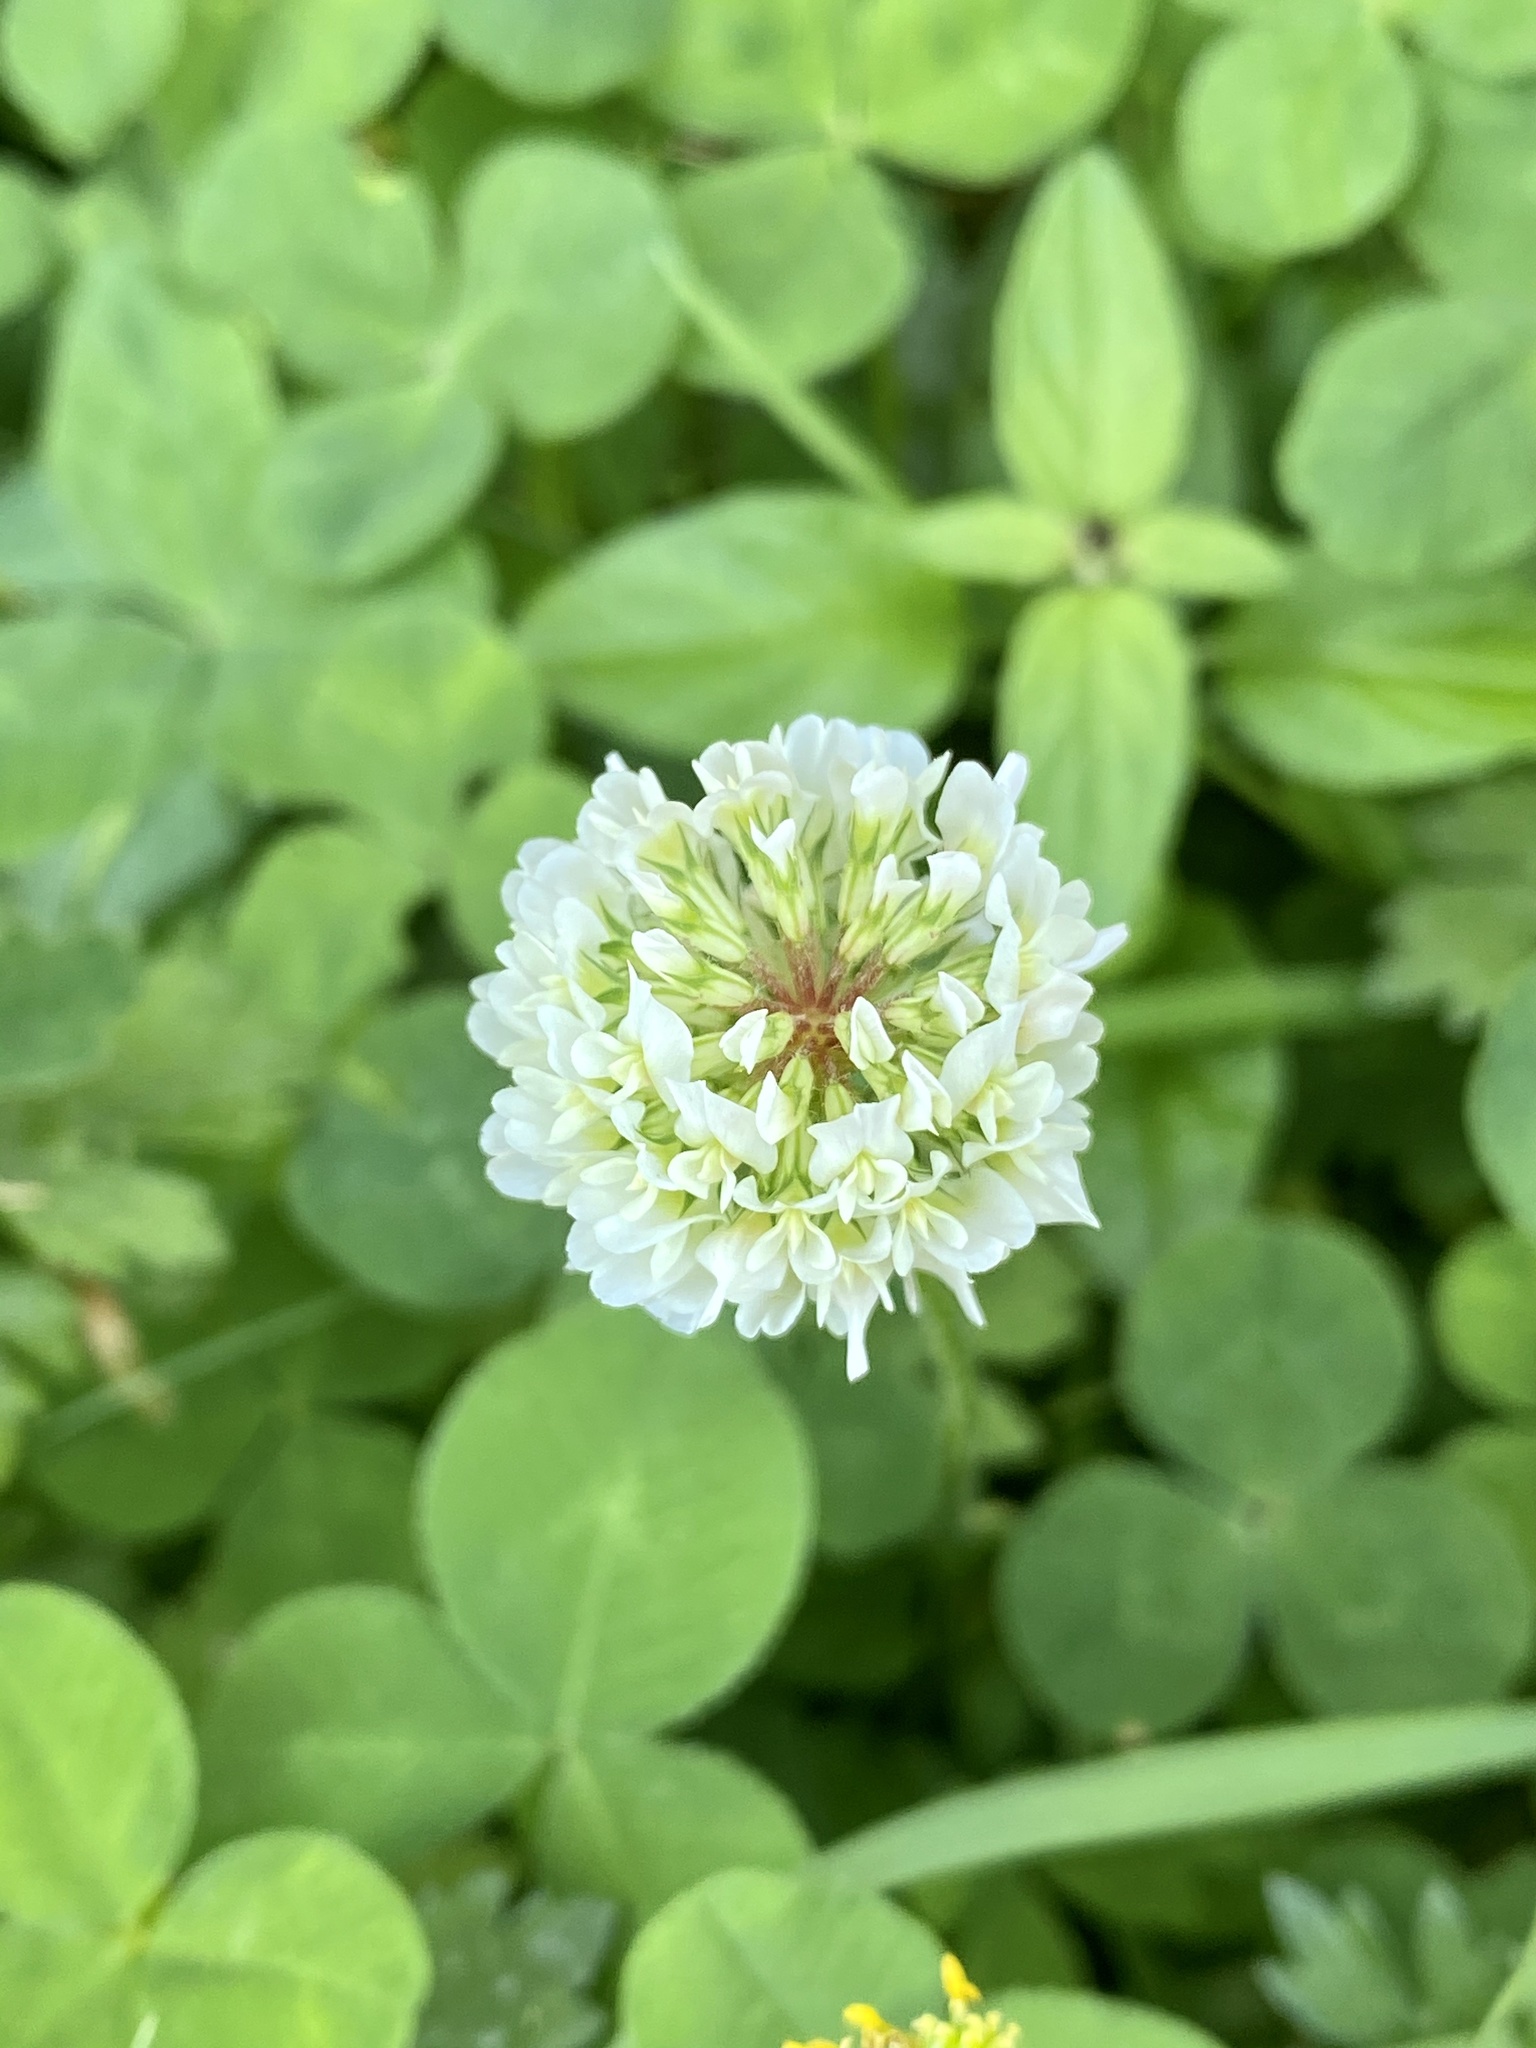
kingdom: Plantae
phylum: Tracheophyta
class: Magnoliopsida
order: Fabales
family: Fabaceae
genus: Trifolium
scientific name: Trifolium repens
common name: White clover
